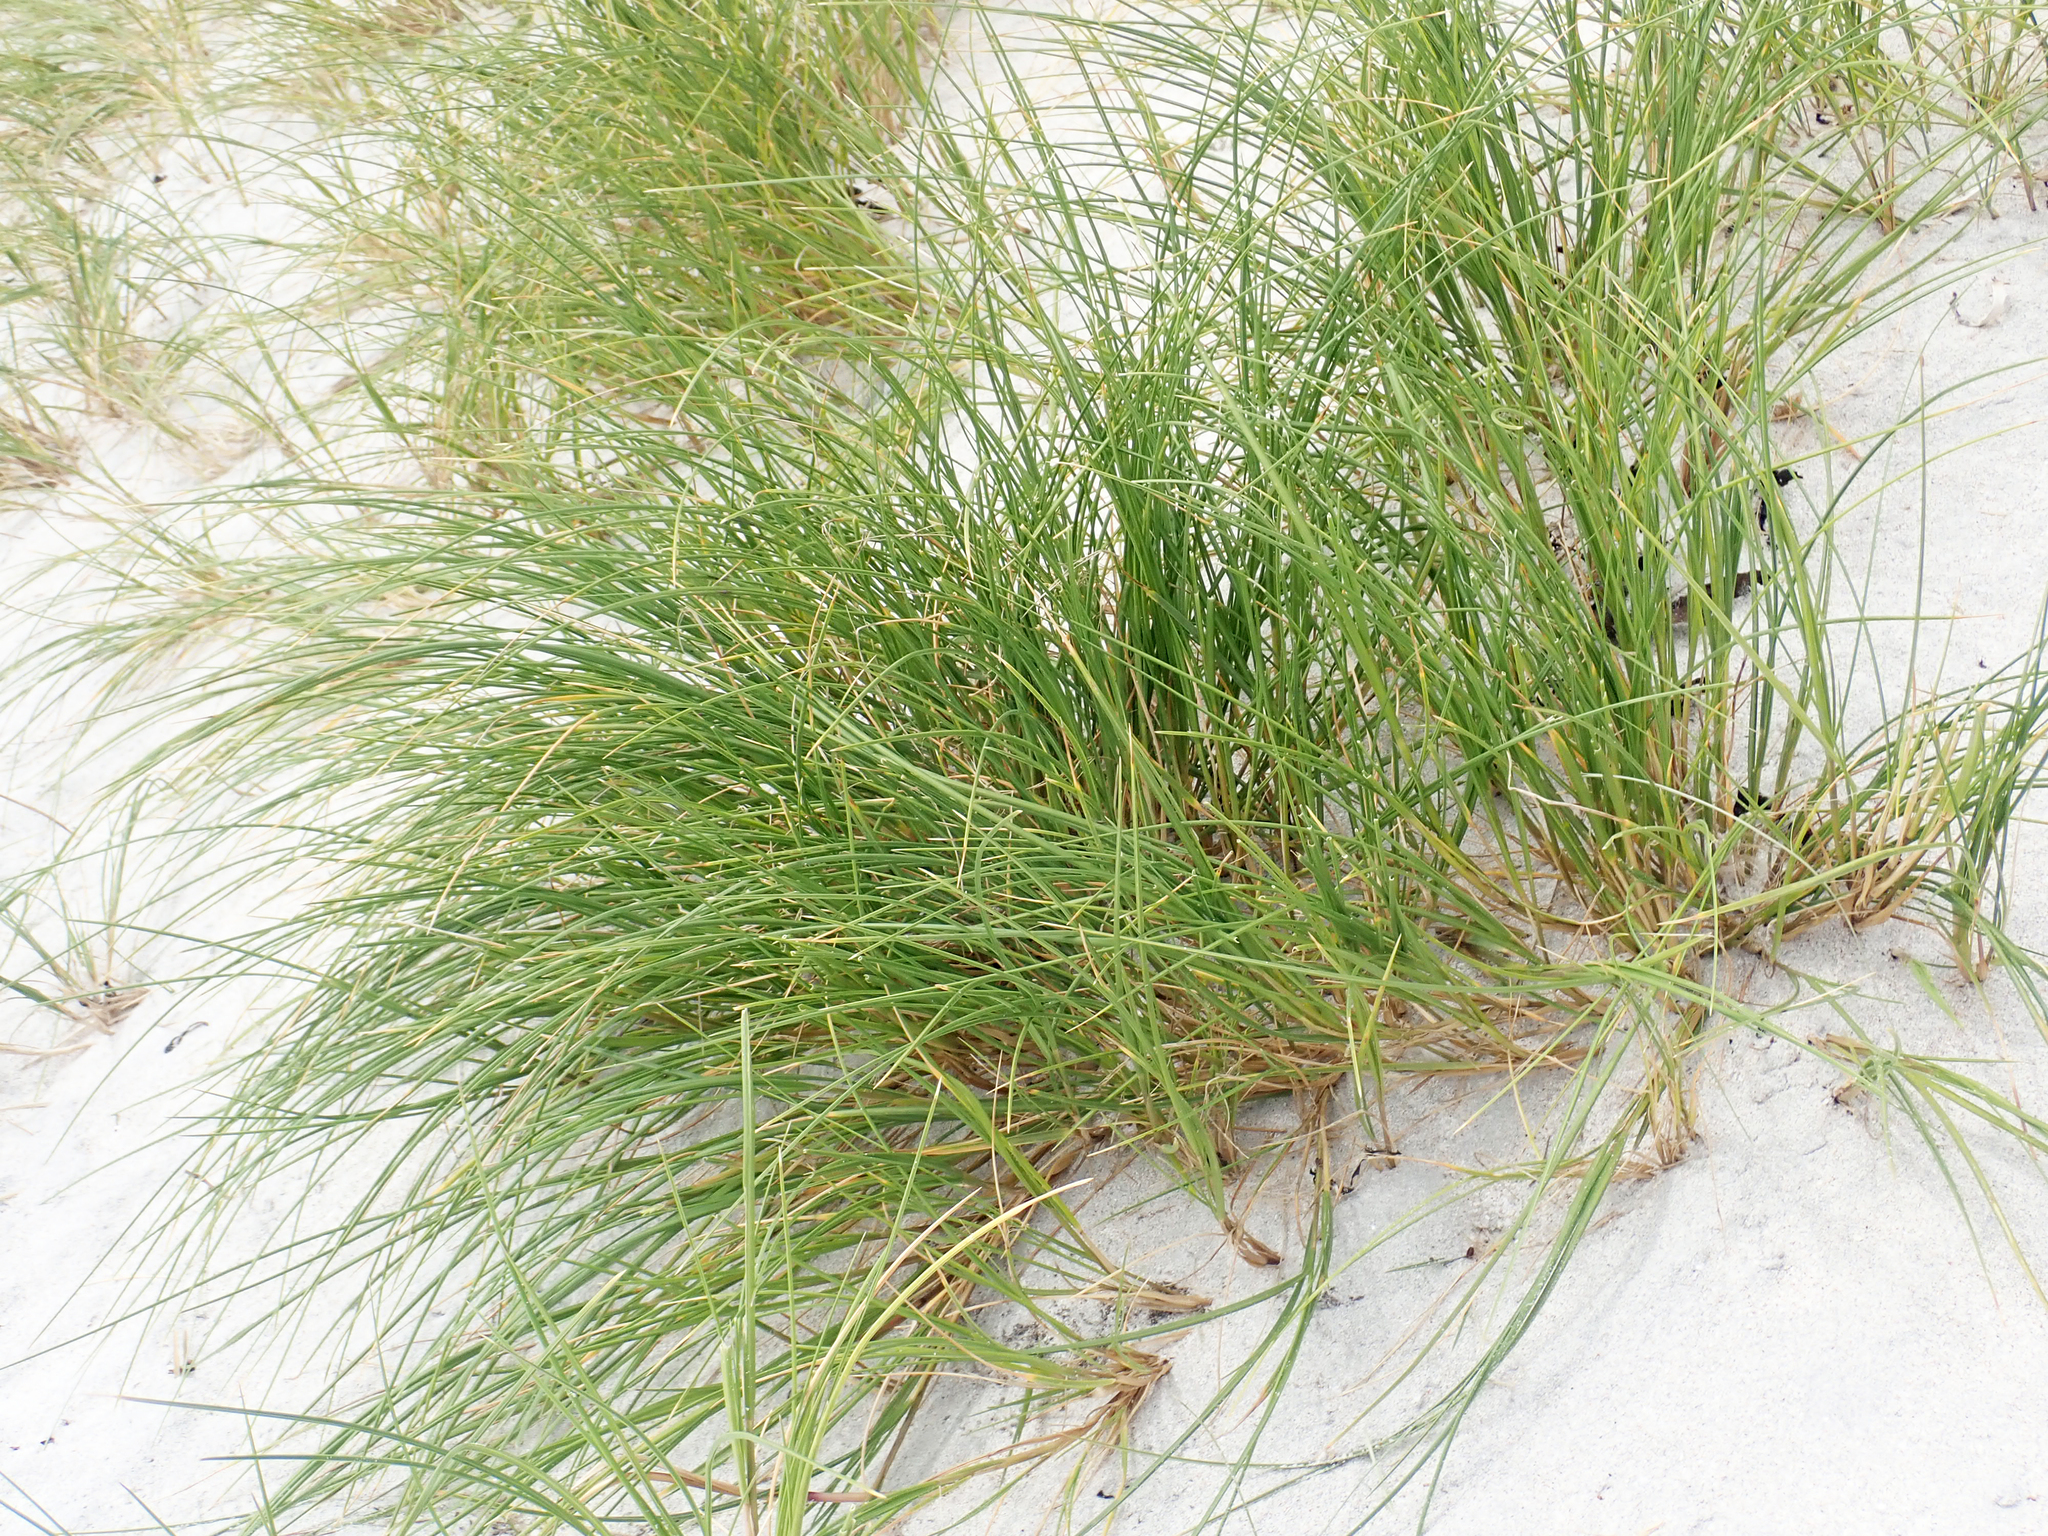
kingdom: Plantae
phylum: Tracheophyta
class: Liliopsida
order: Poales
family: Poaceae
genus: Poa
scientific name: Poa chathamica
